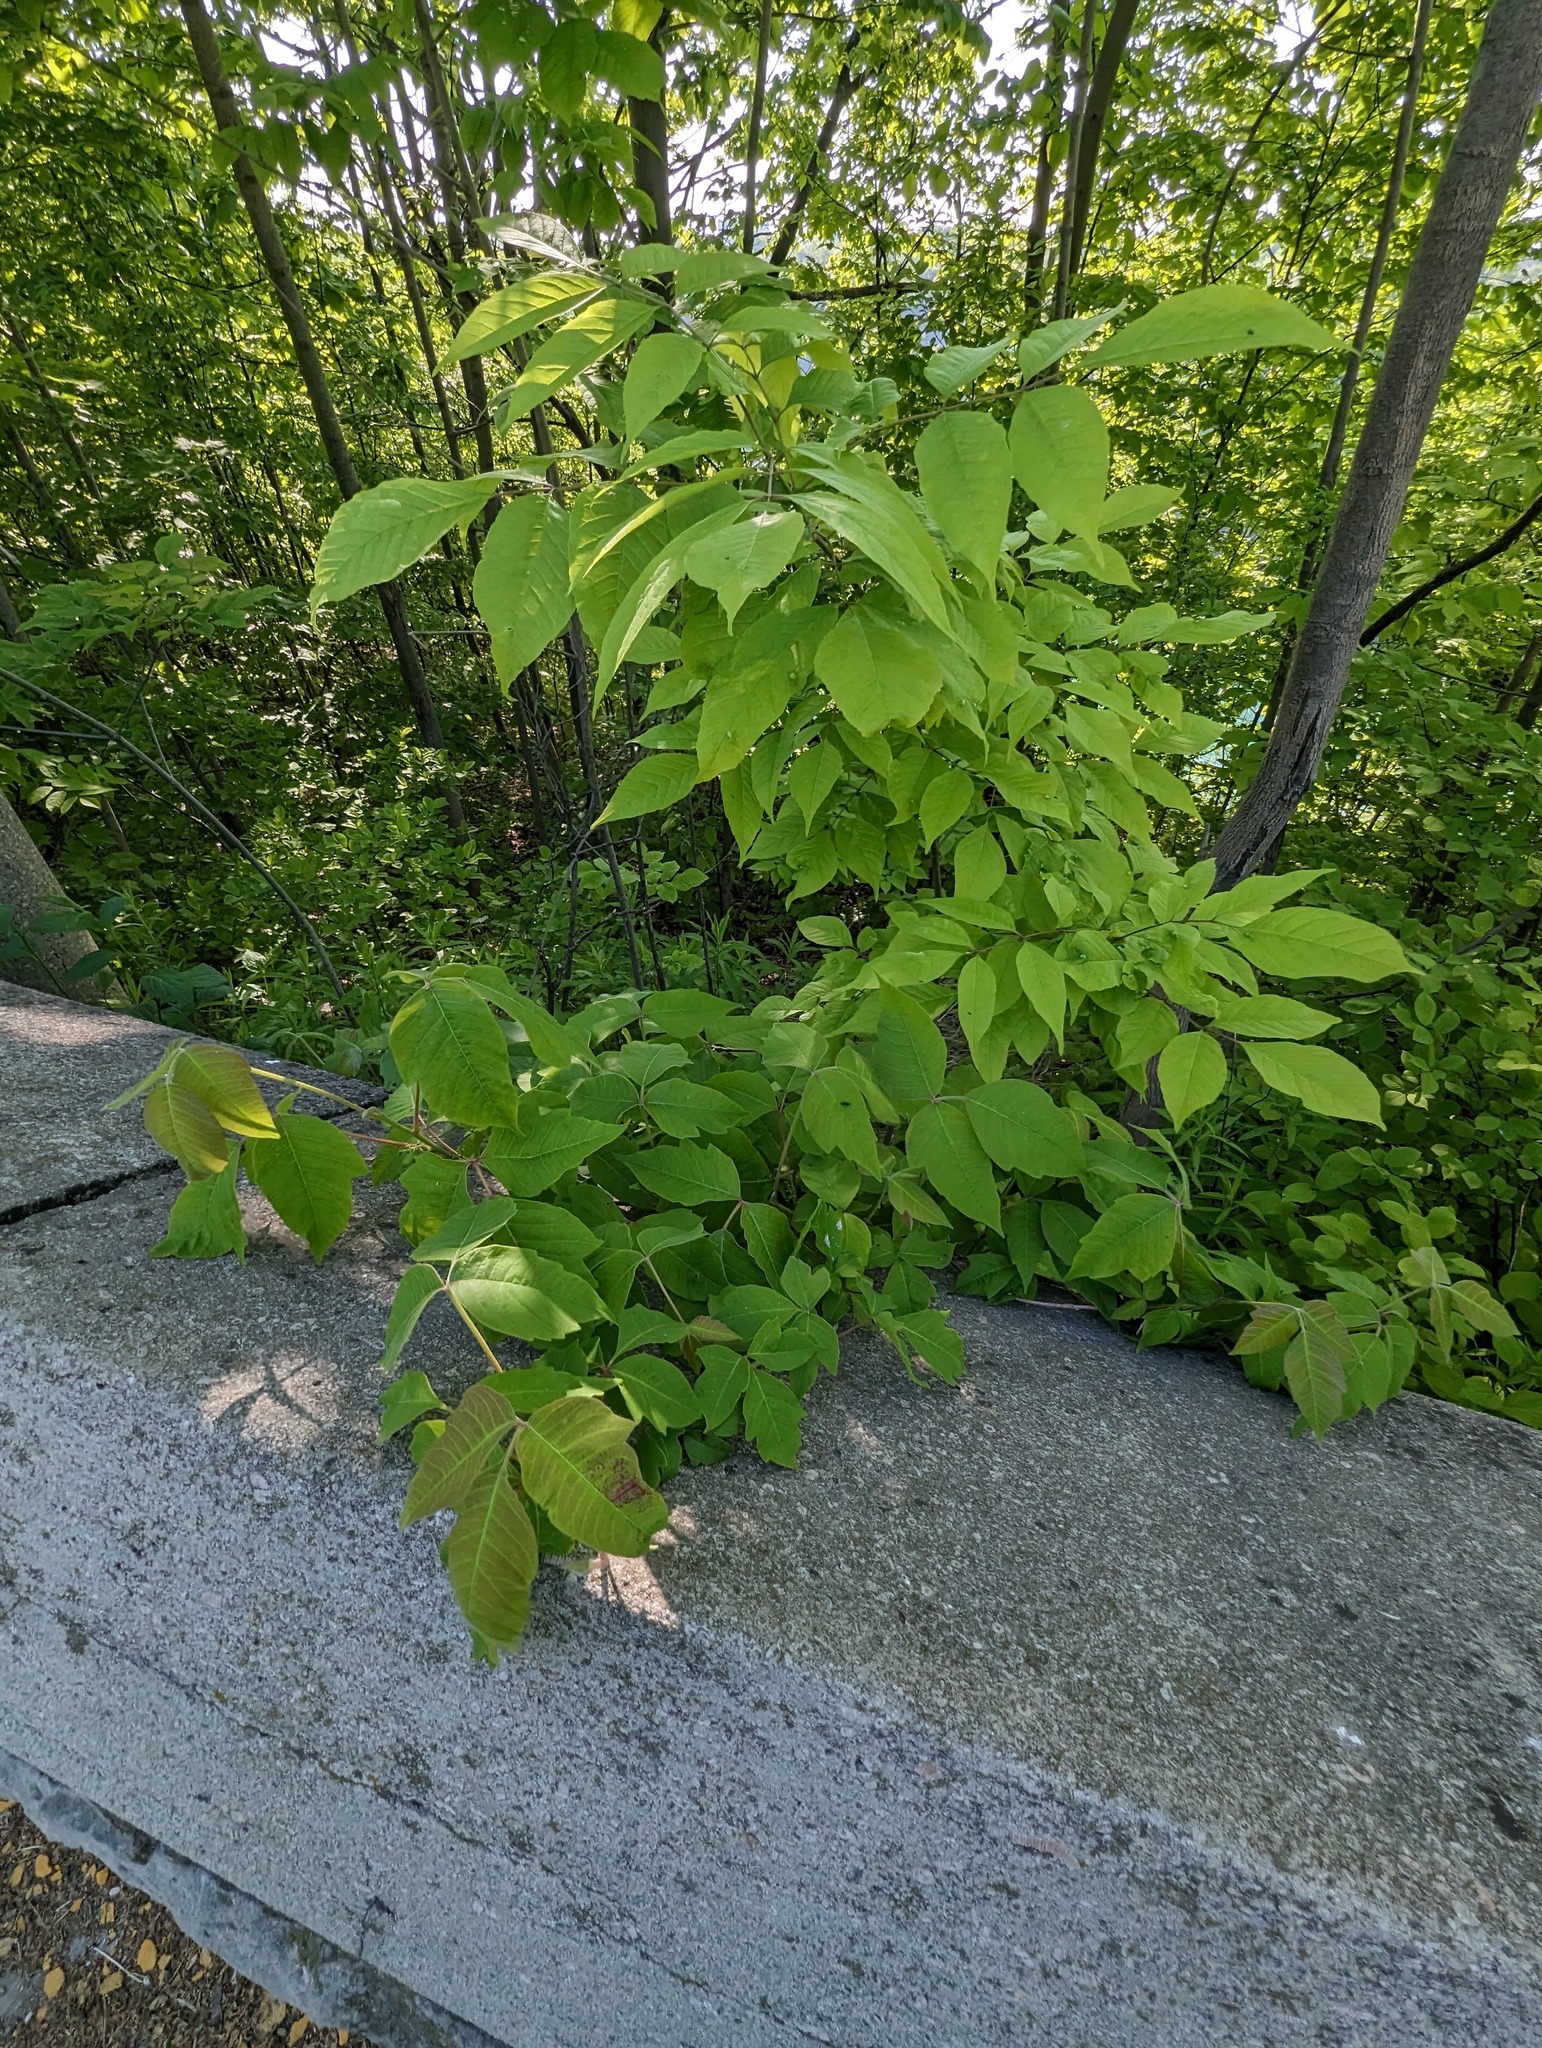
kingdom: Plantae
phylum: Tracheophyta
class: Magnoliopsida
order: Sapindales
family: Anacardiaceae
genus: Toxicodendron
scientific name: Toxicodendron radicans
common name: Poison ivy
